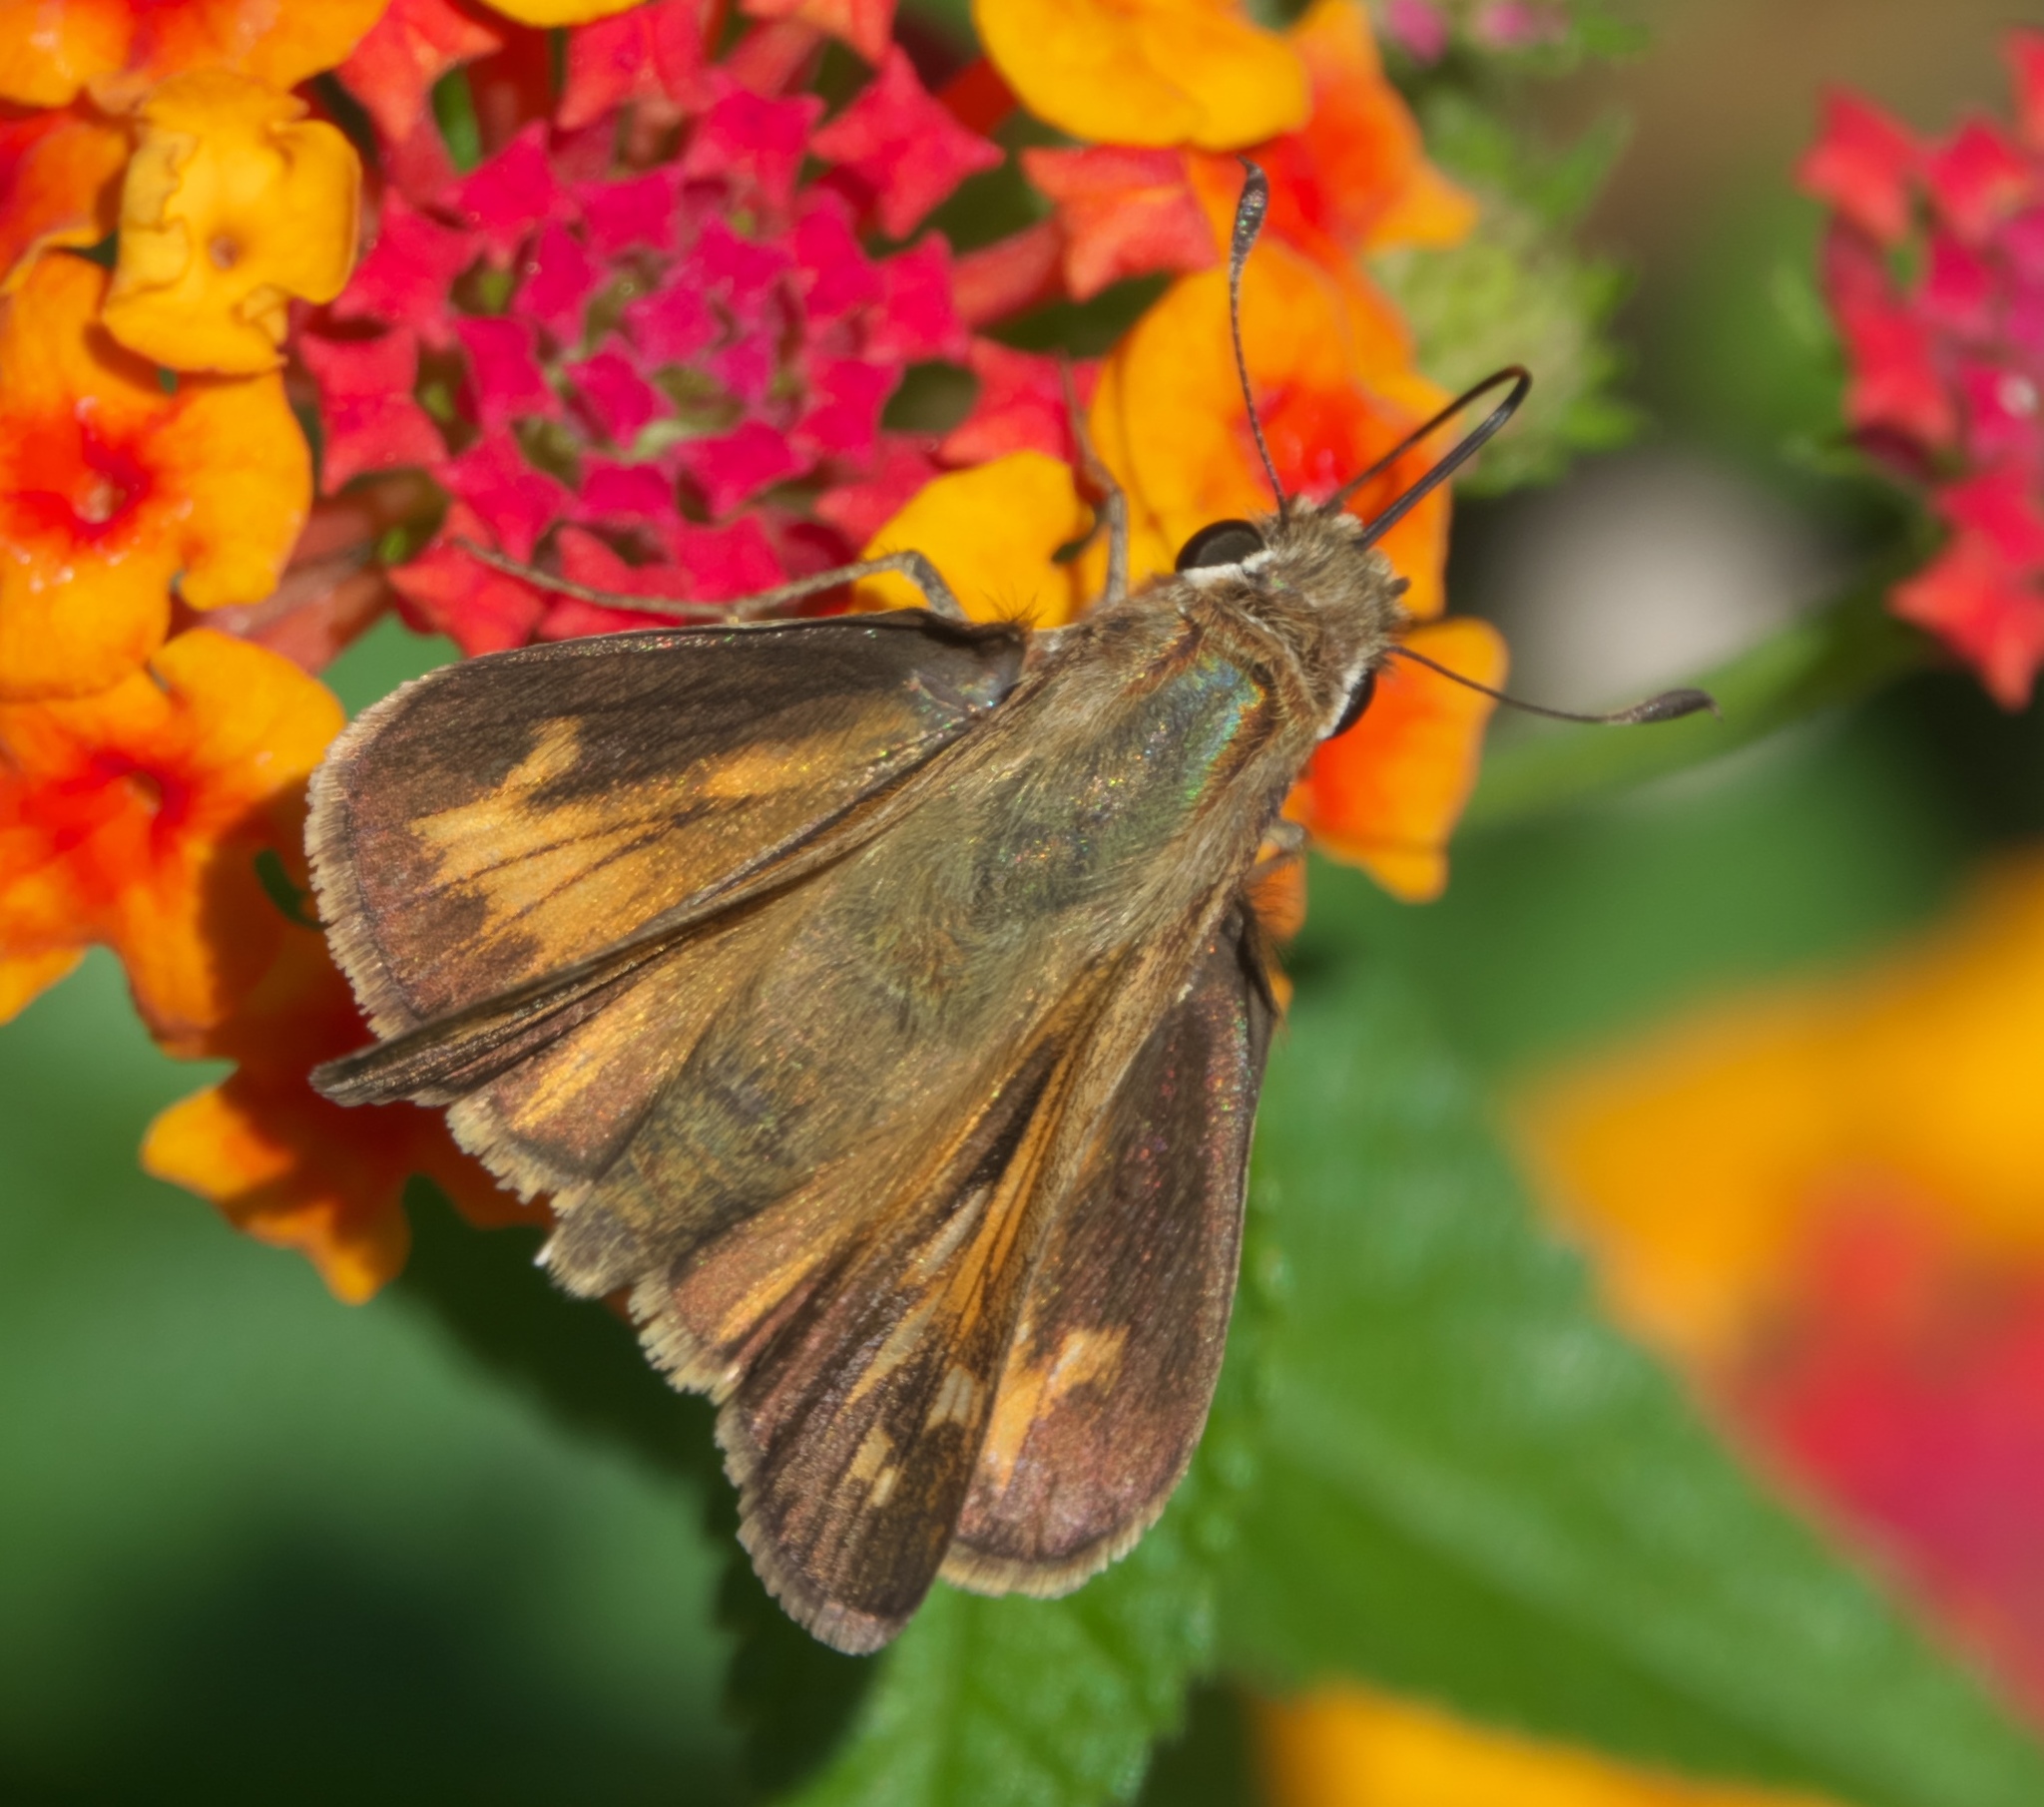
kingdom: Animalia
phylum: Arthropoda
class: Insecta
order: Lepidoptera
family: Hesperiidae
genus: Atalopedes
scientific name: Atalopedes
